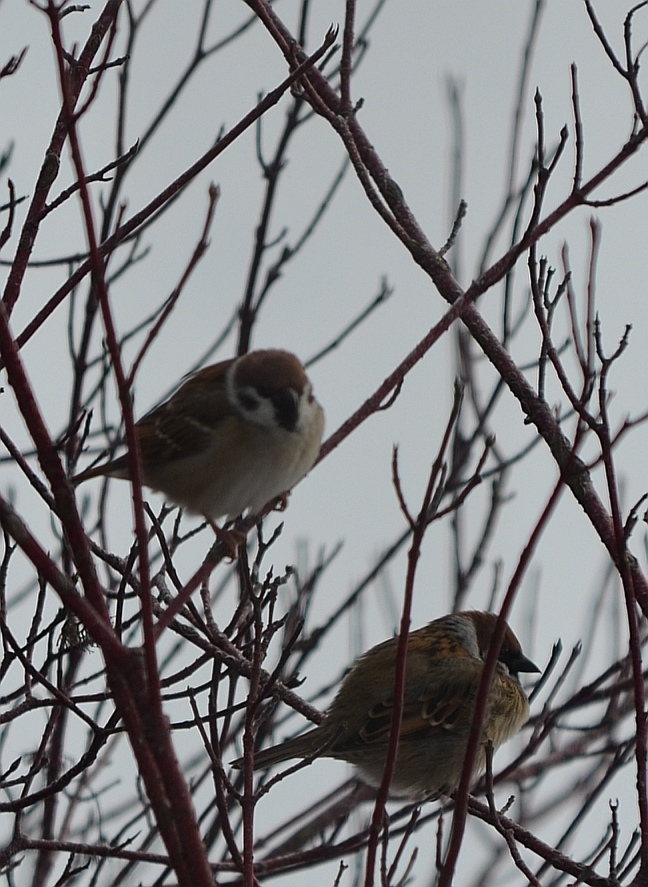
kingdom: Animalia
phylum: Chordata
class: Aves
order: Passeriformes
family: Passeridae
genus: Passer
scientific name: Passer montanus
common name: Eurasian tree sparrow
